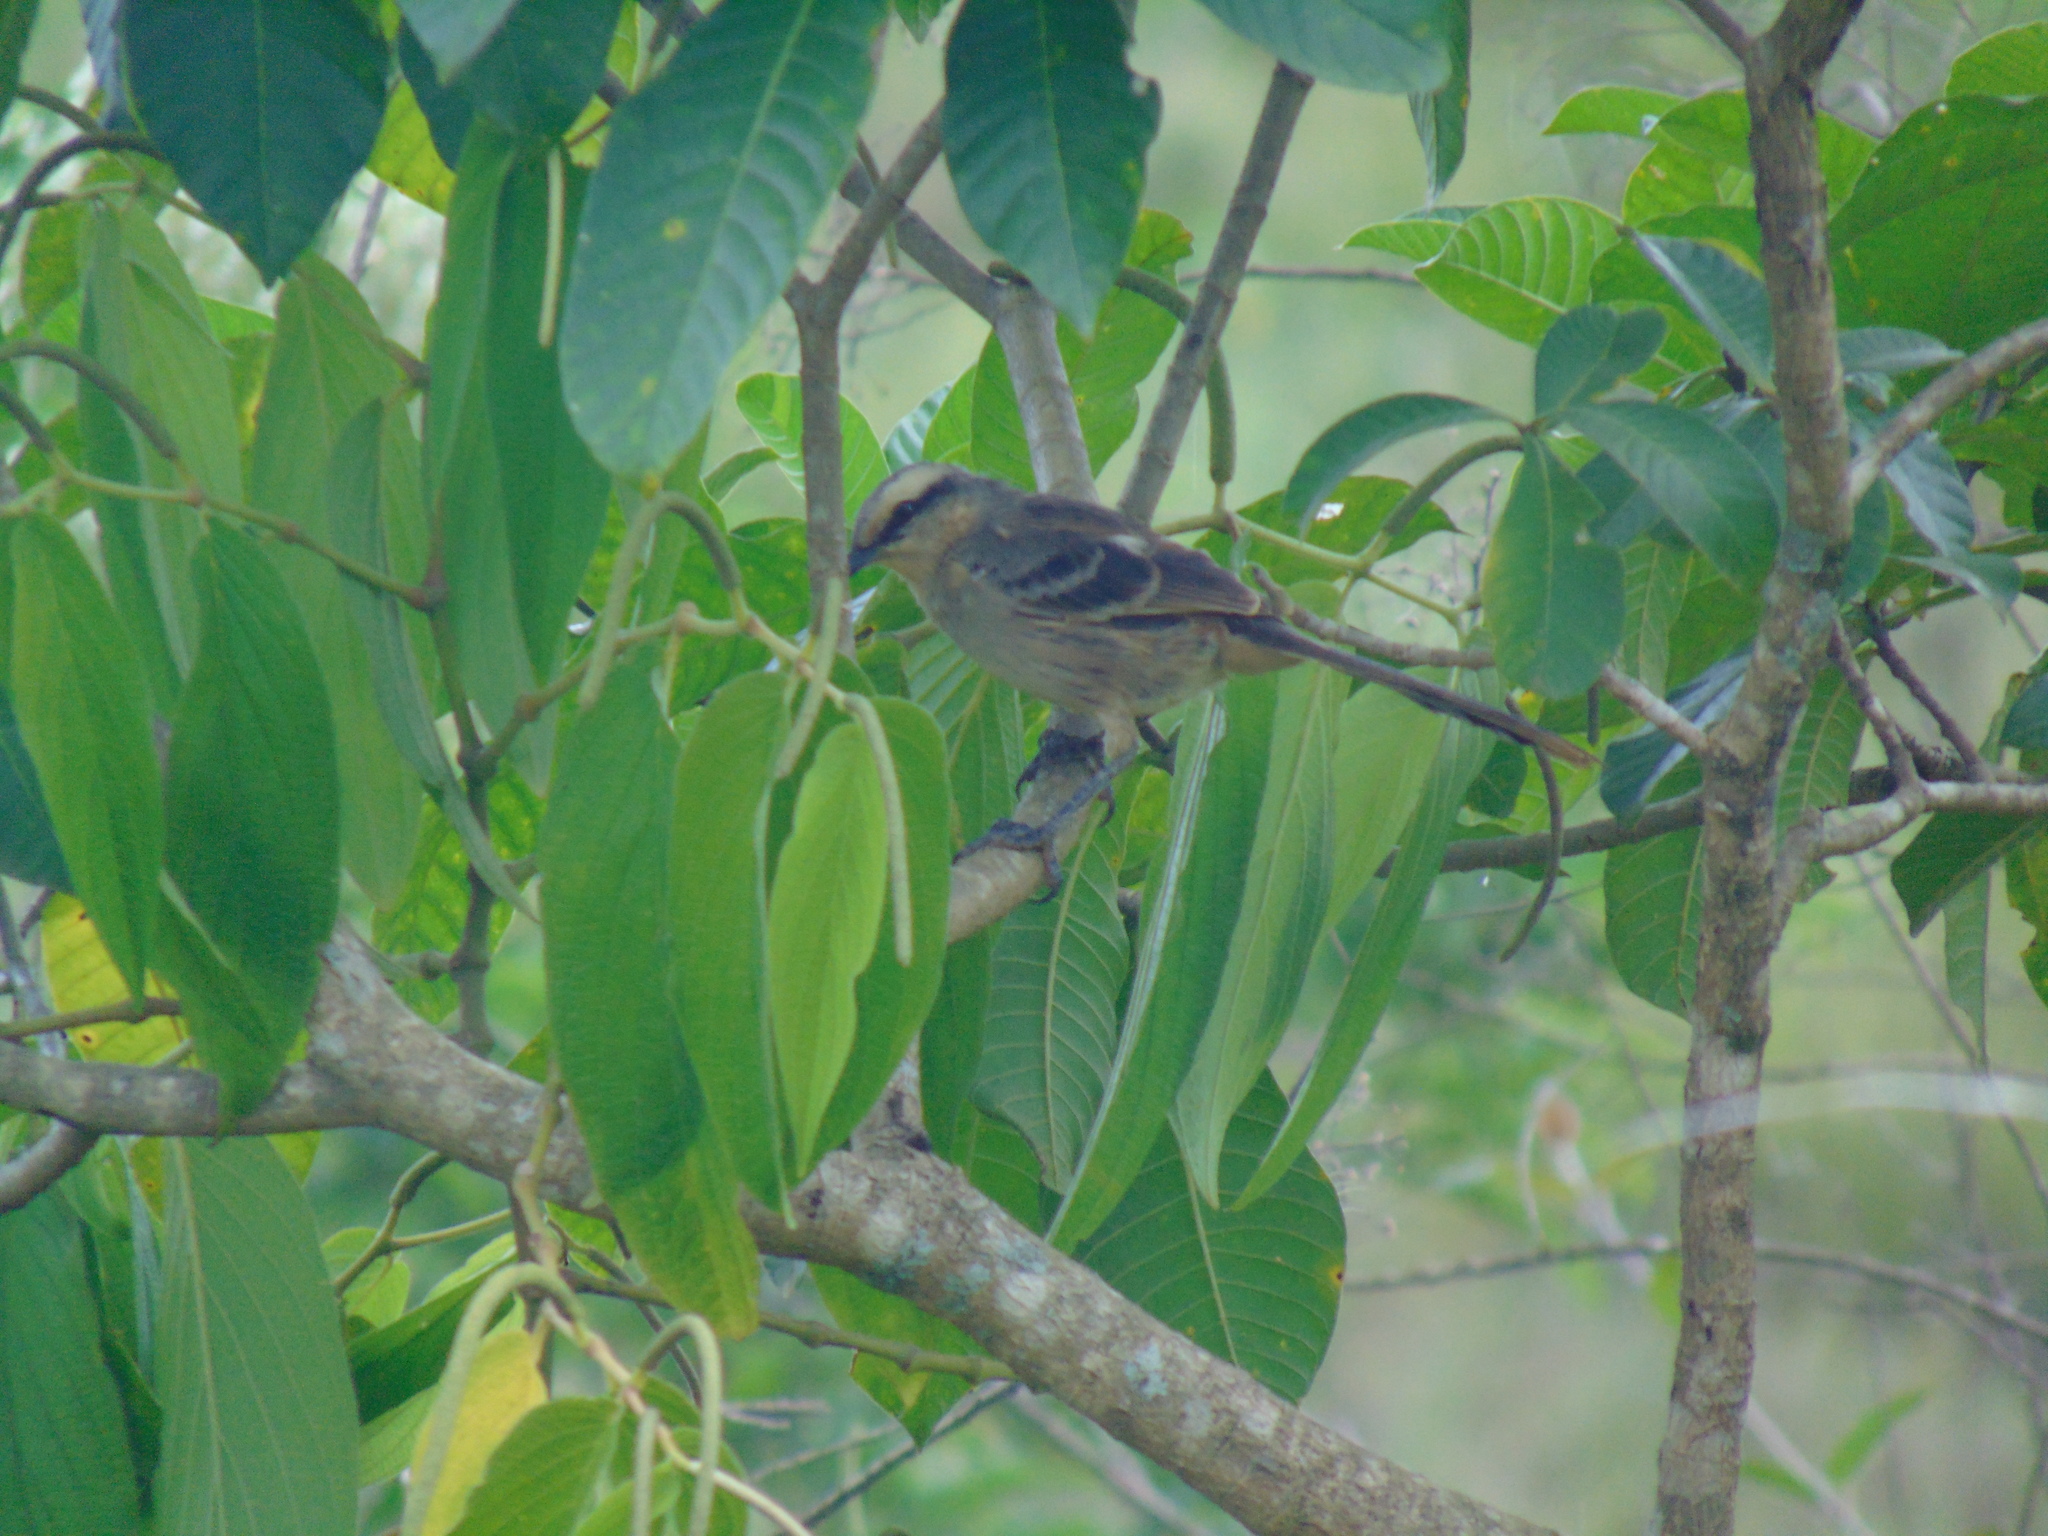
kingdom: Animalia
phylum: Chordata
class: Aves
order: Passeriformes
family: Mimidae
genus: Mimus
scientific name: Mimus saturninus
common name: Chalk-browed mockingbird
